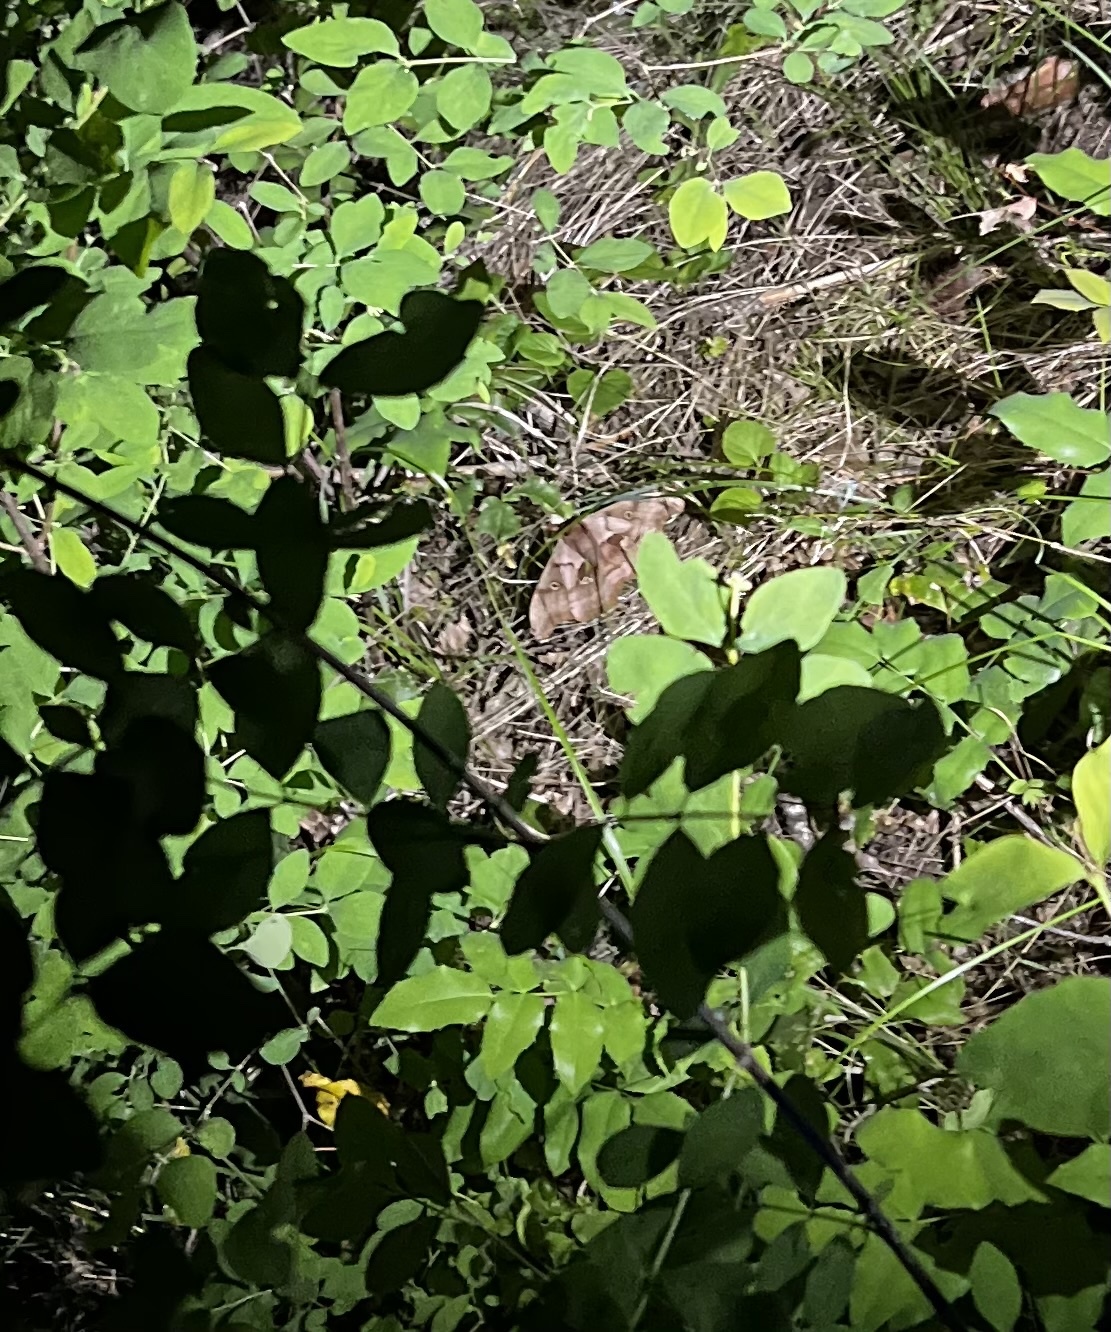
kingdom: Animalia
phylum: Arthropoda
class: Insecta
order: Lepidoptera
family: Saturniidae
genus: Antheraea
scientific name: Antheraea polyphemus
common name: Polyphemus moth
